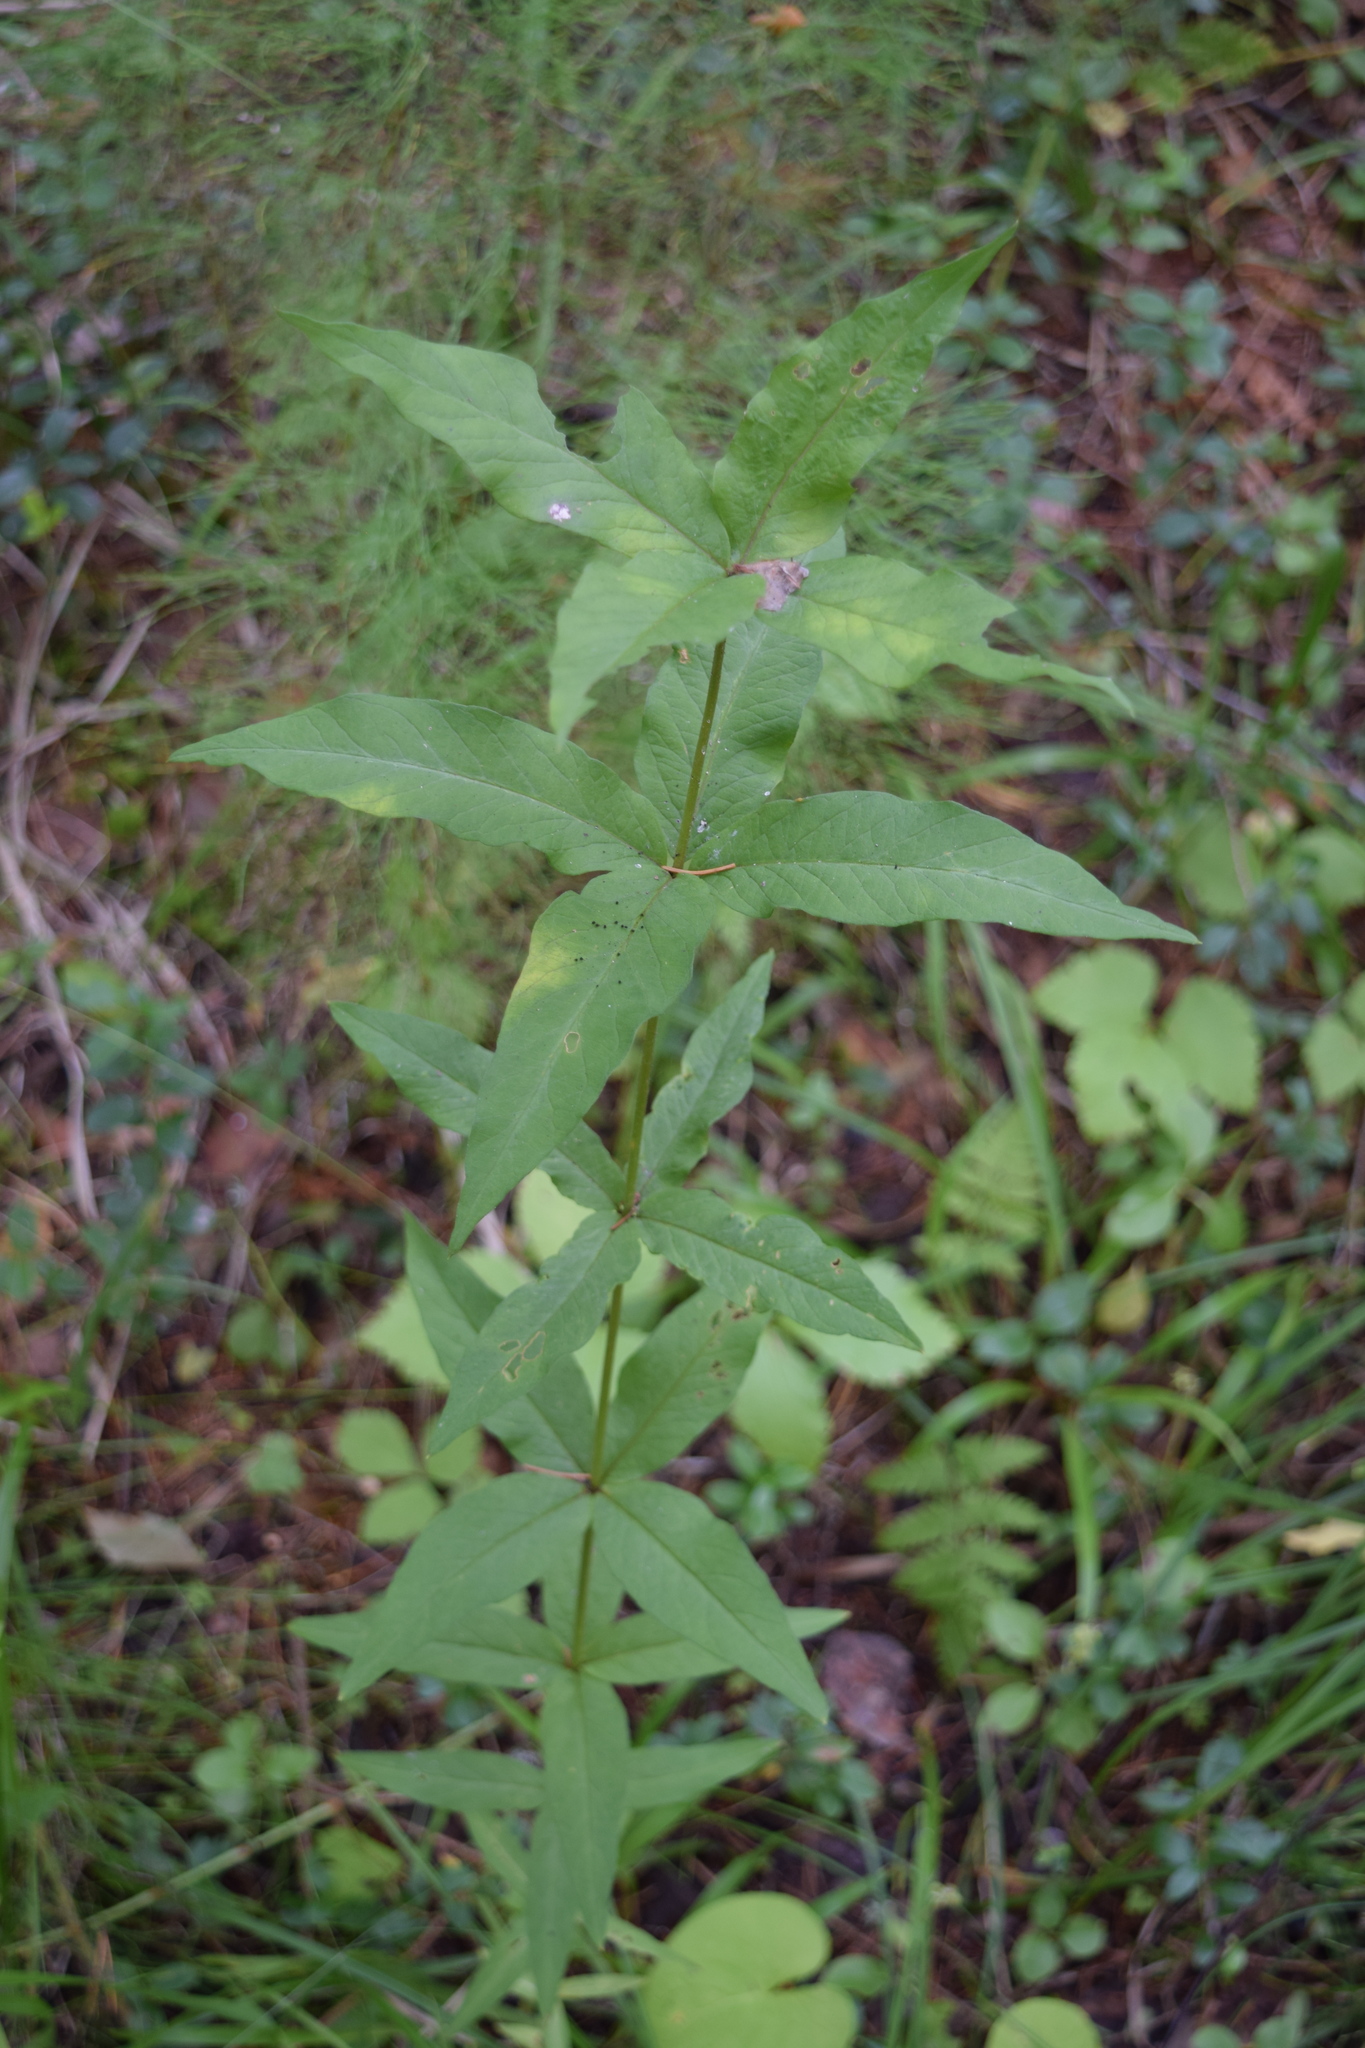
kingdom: Plantae
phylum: Tracheophyta
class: Magnoliopsida
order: Ericales
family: Primulaceae
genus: Lysimachia
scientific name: Lysimachia vulgaris
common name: Yellow loosestrife
